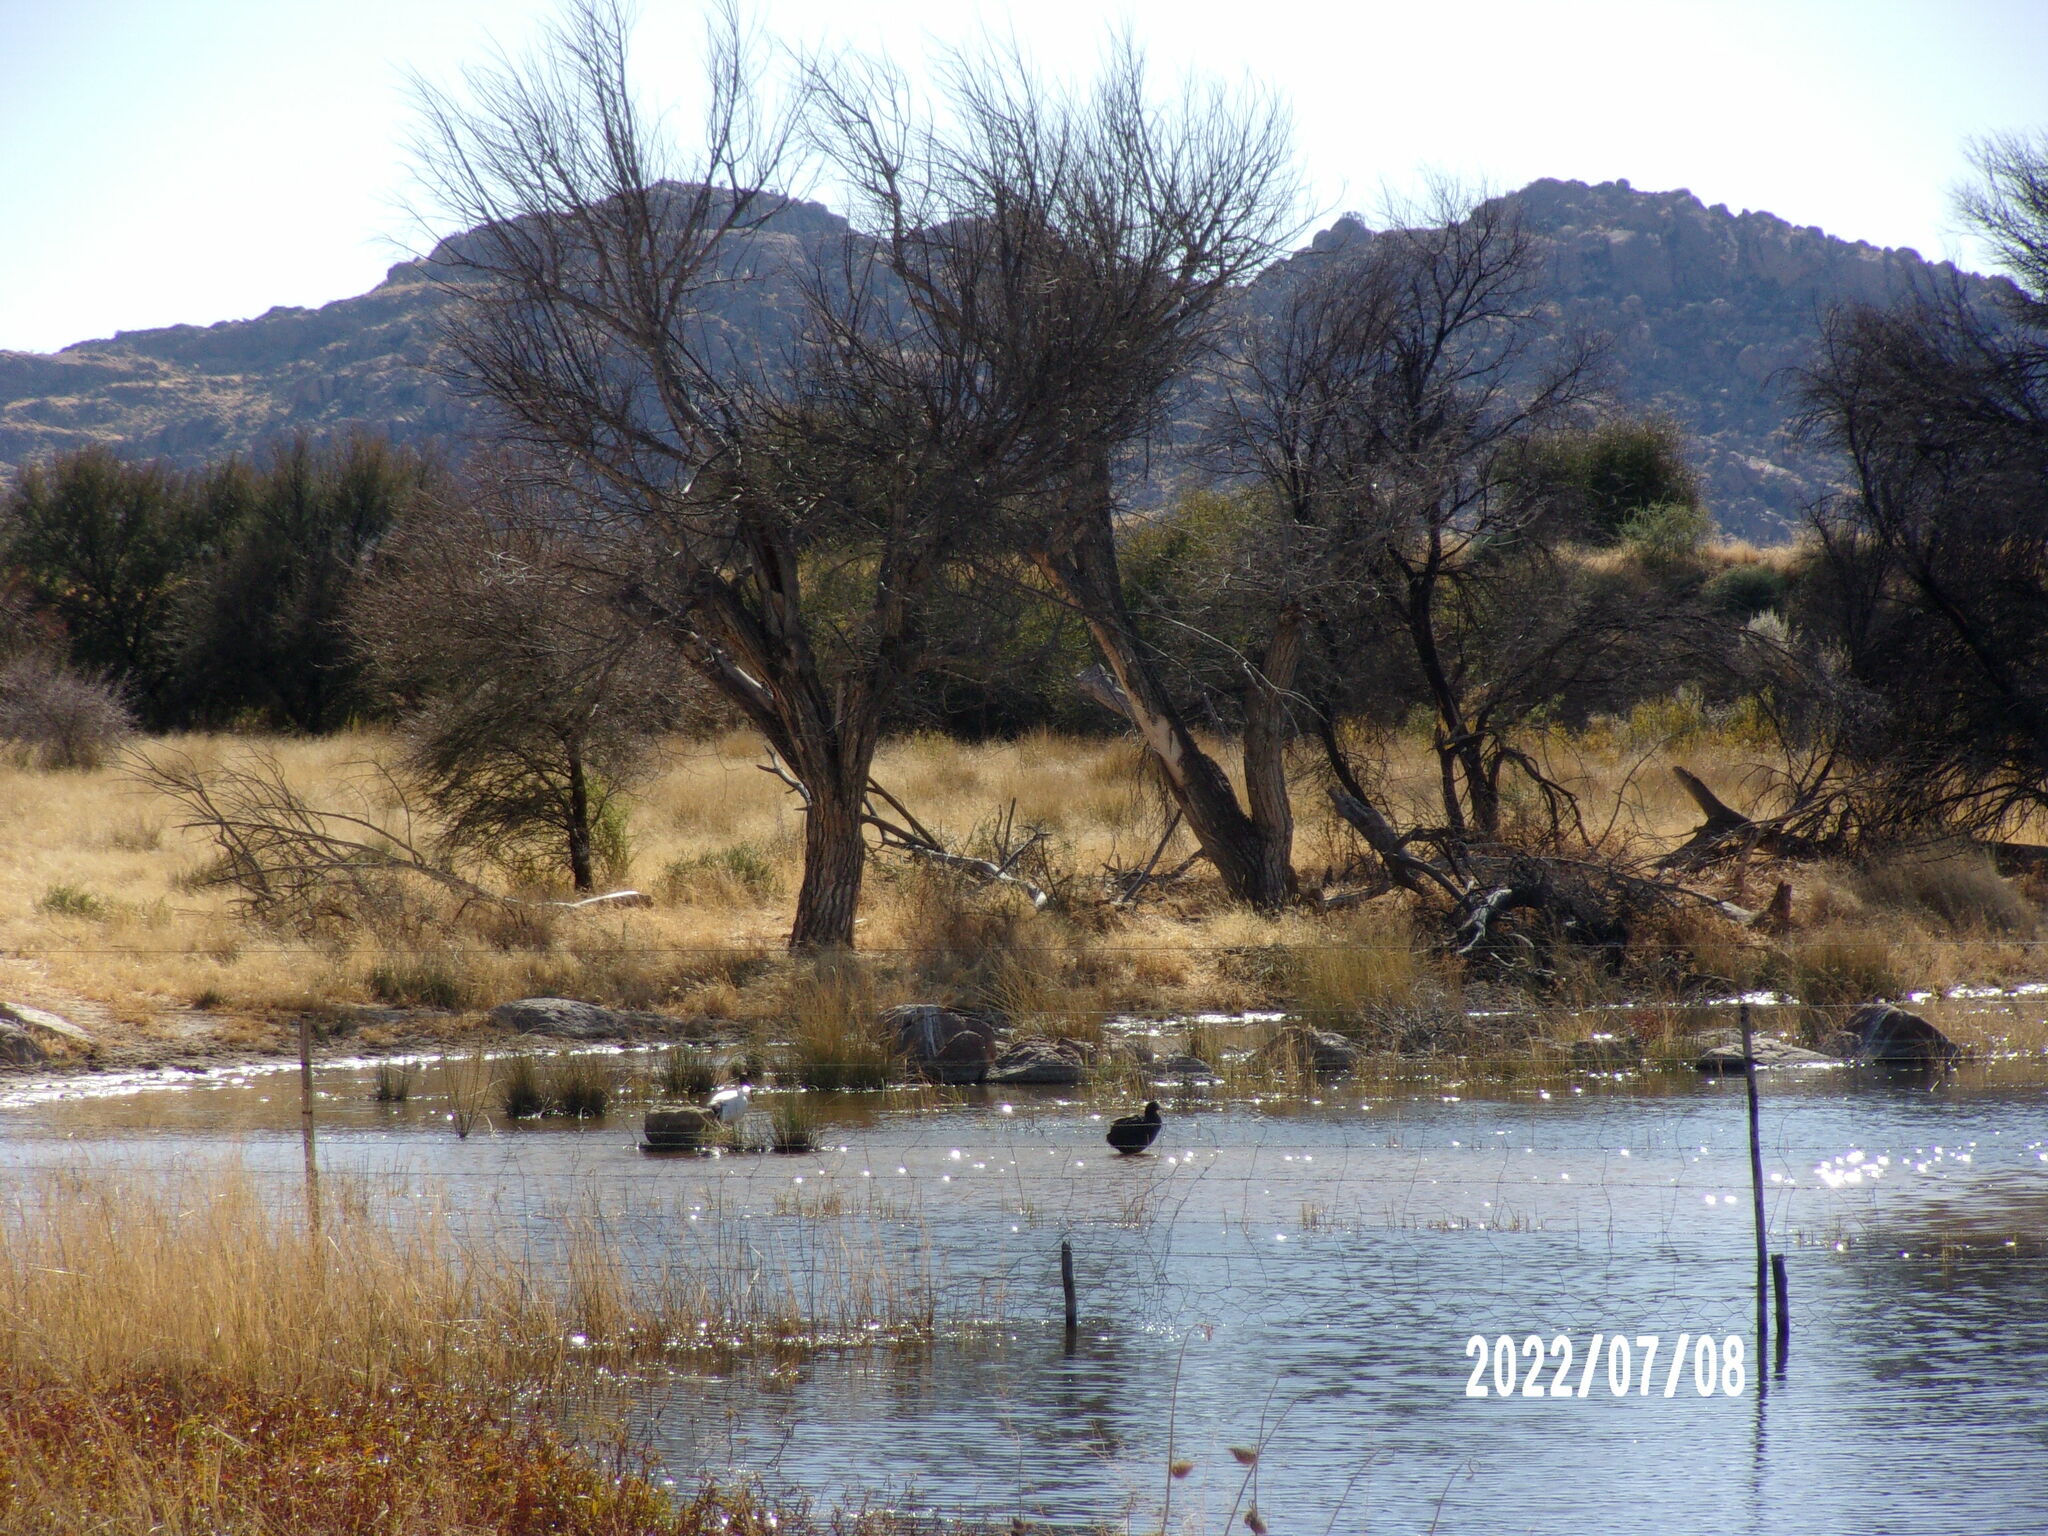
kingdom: Animalia
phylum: Chordata
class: Aves
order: Gruiformes
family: Rallidae
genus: Fulica
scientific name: Fulica cristata
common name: Red-knobbed coot
